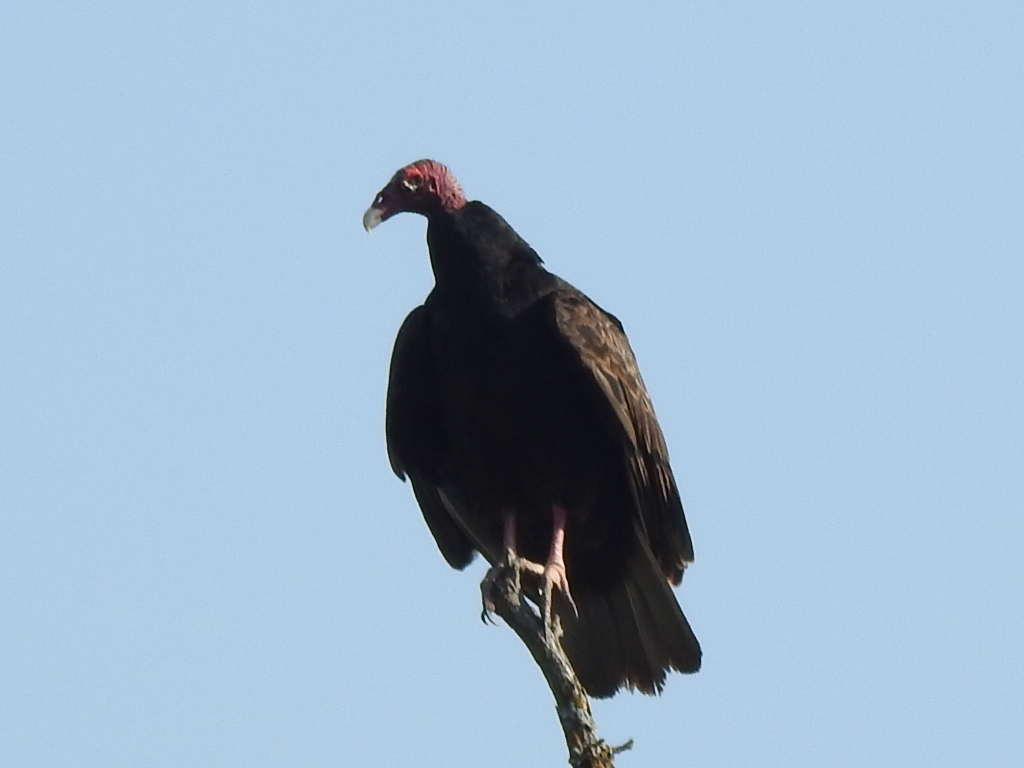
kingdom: Animalia
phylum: Chordata
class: Aves
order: Accipitriformes
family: Cathartidae
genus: Cathartes
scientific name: Cathartes aura
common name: Turkey vulture
